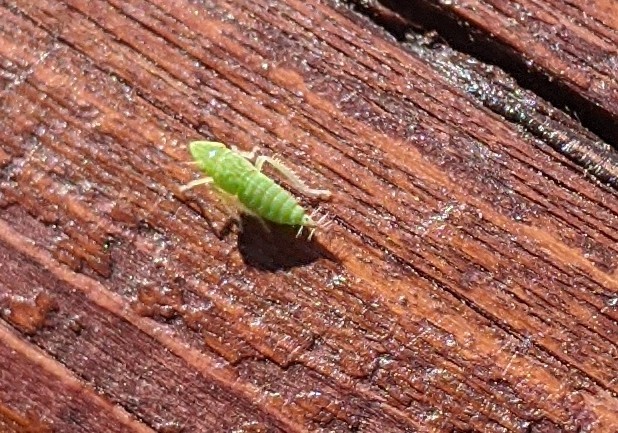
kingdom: Animalia
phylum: Arthropoda
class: Insecta
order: Hemiptera
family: Cicadellidae
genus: Fieberiella
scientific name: Fieberiella florii
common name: Flor’s leafhopper
